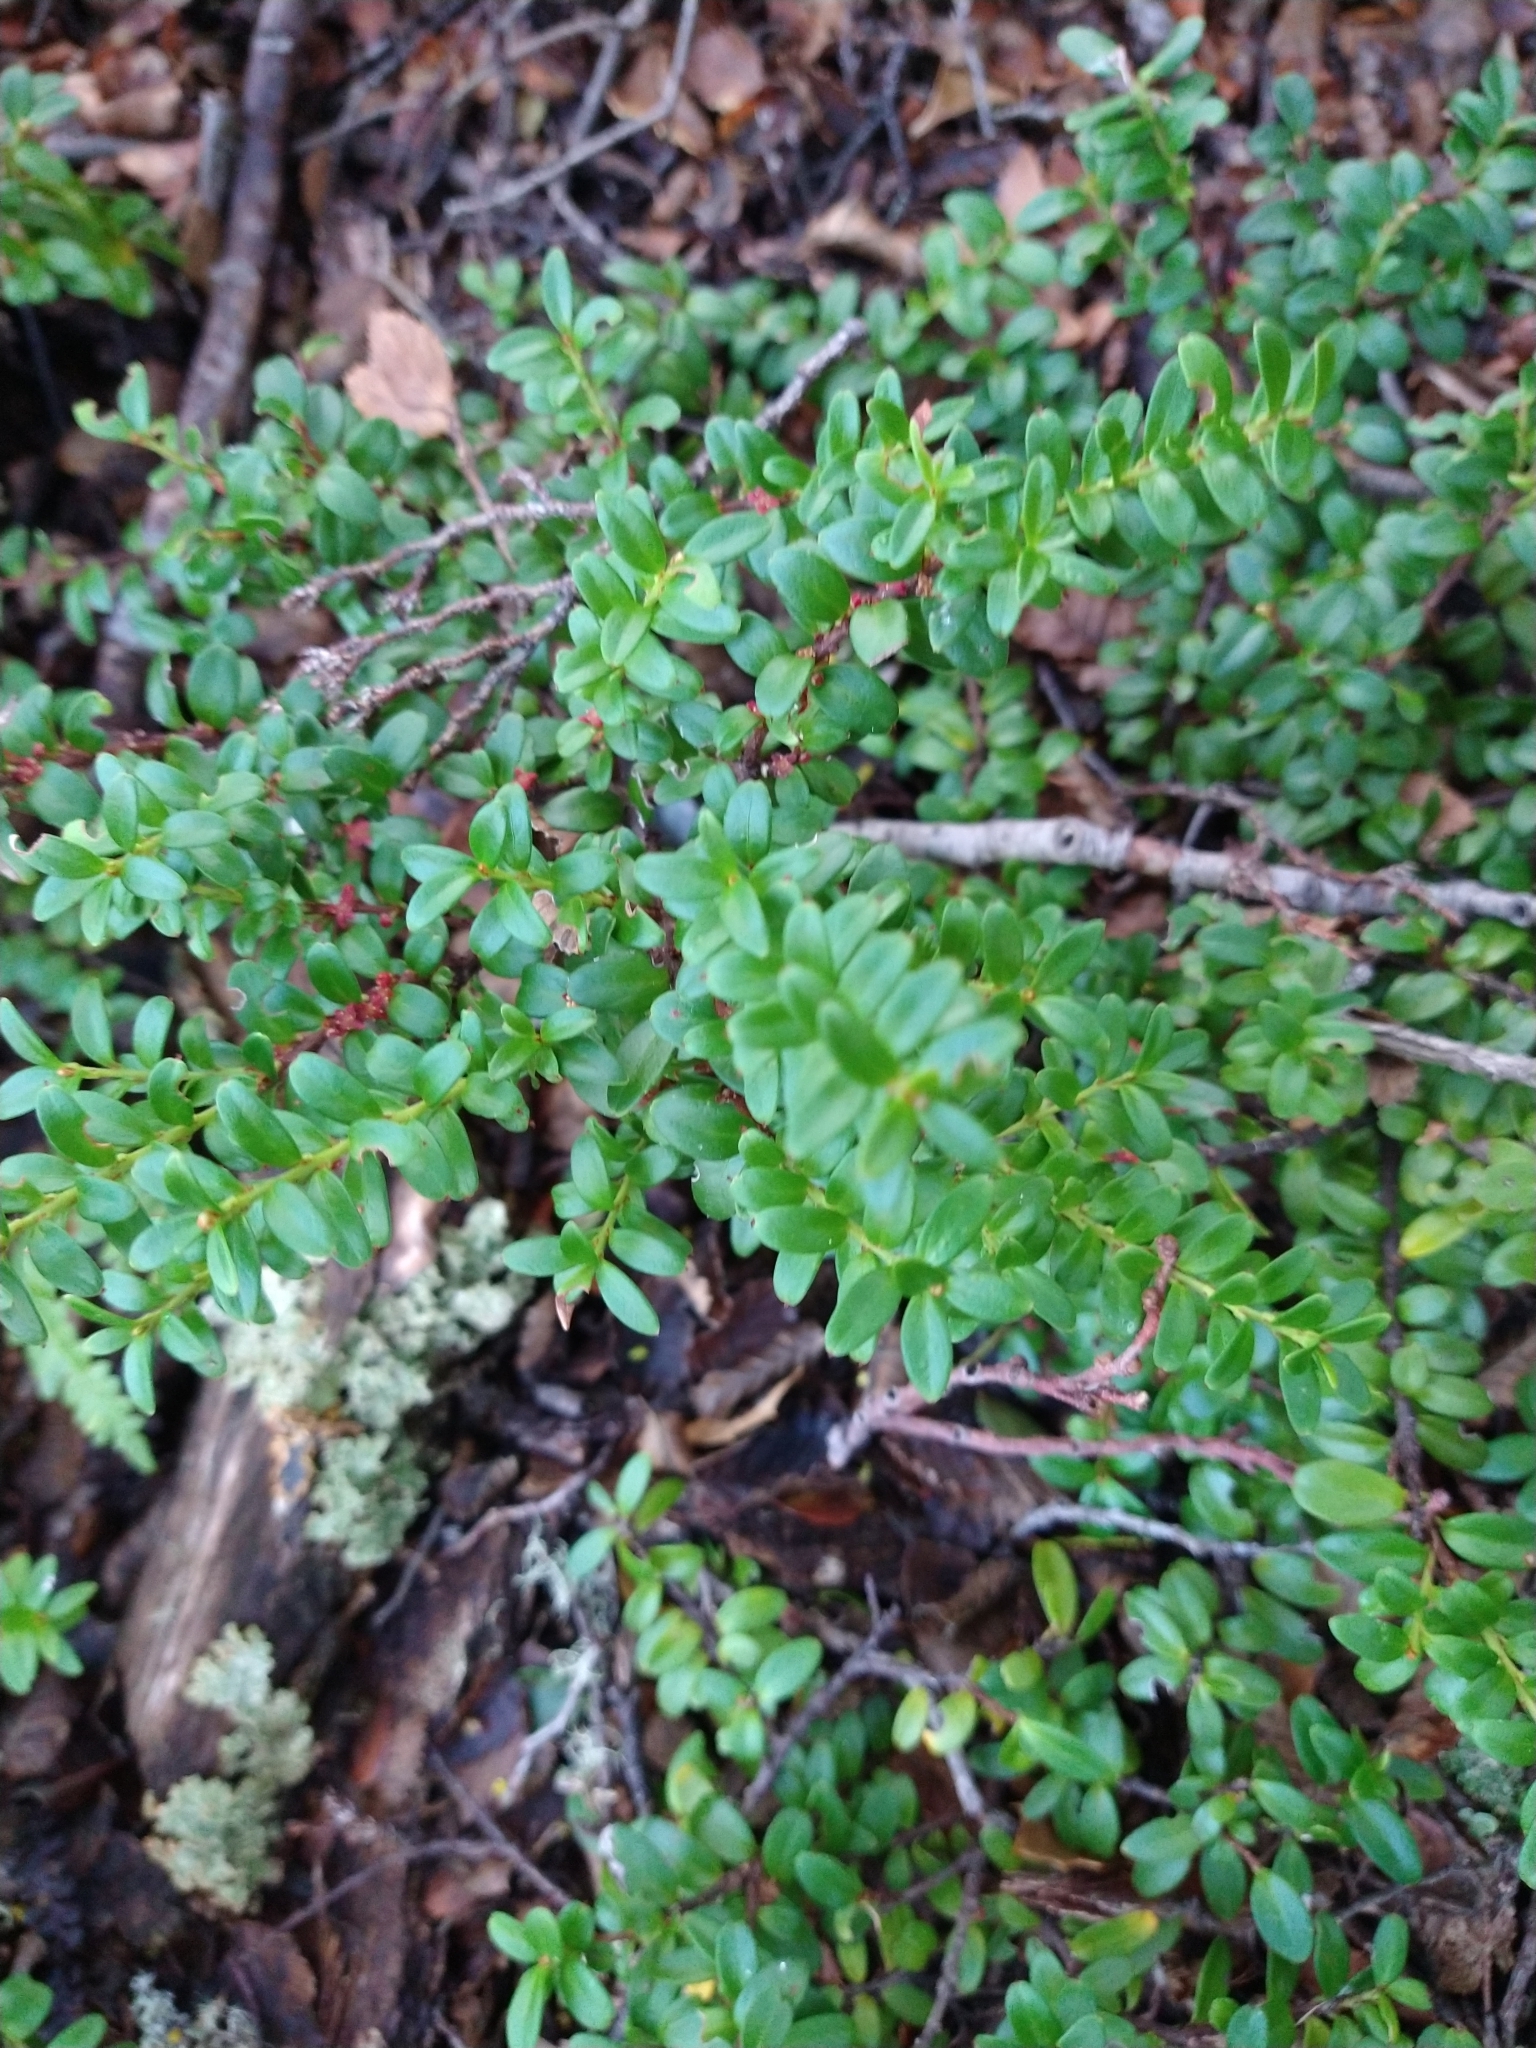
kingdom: Plantae
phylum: Tracheophyta
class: Magnoliopsida
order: Celastrales
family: Celastraceae
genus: Maytenus
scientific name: Maytenus disticha
